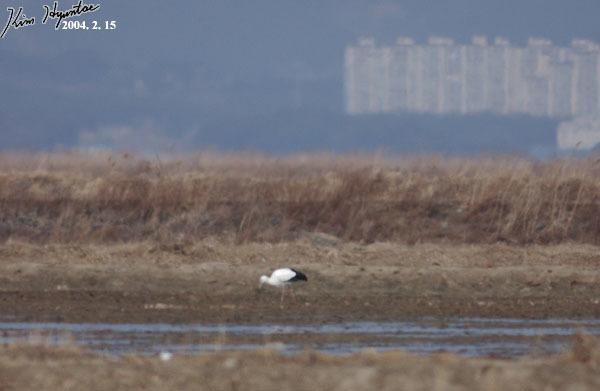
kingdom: Animalia
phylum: Chordata
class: Aves
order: Ciconiiformes
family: Ciconiidae
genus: Ciconia
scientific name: Ciconia boyciana
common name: Oriental stork
